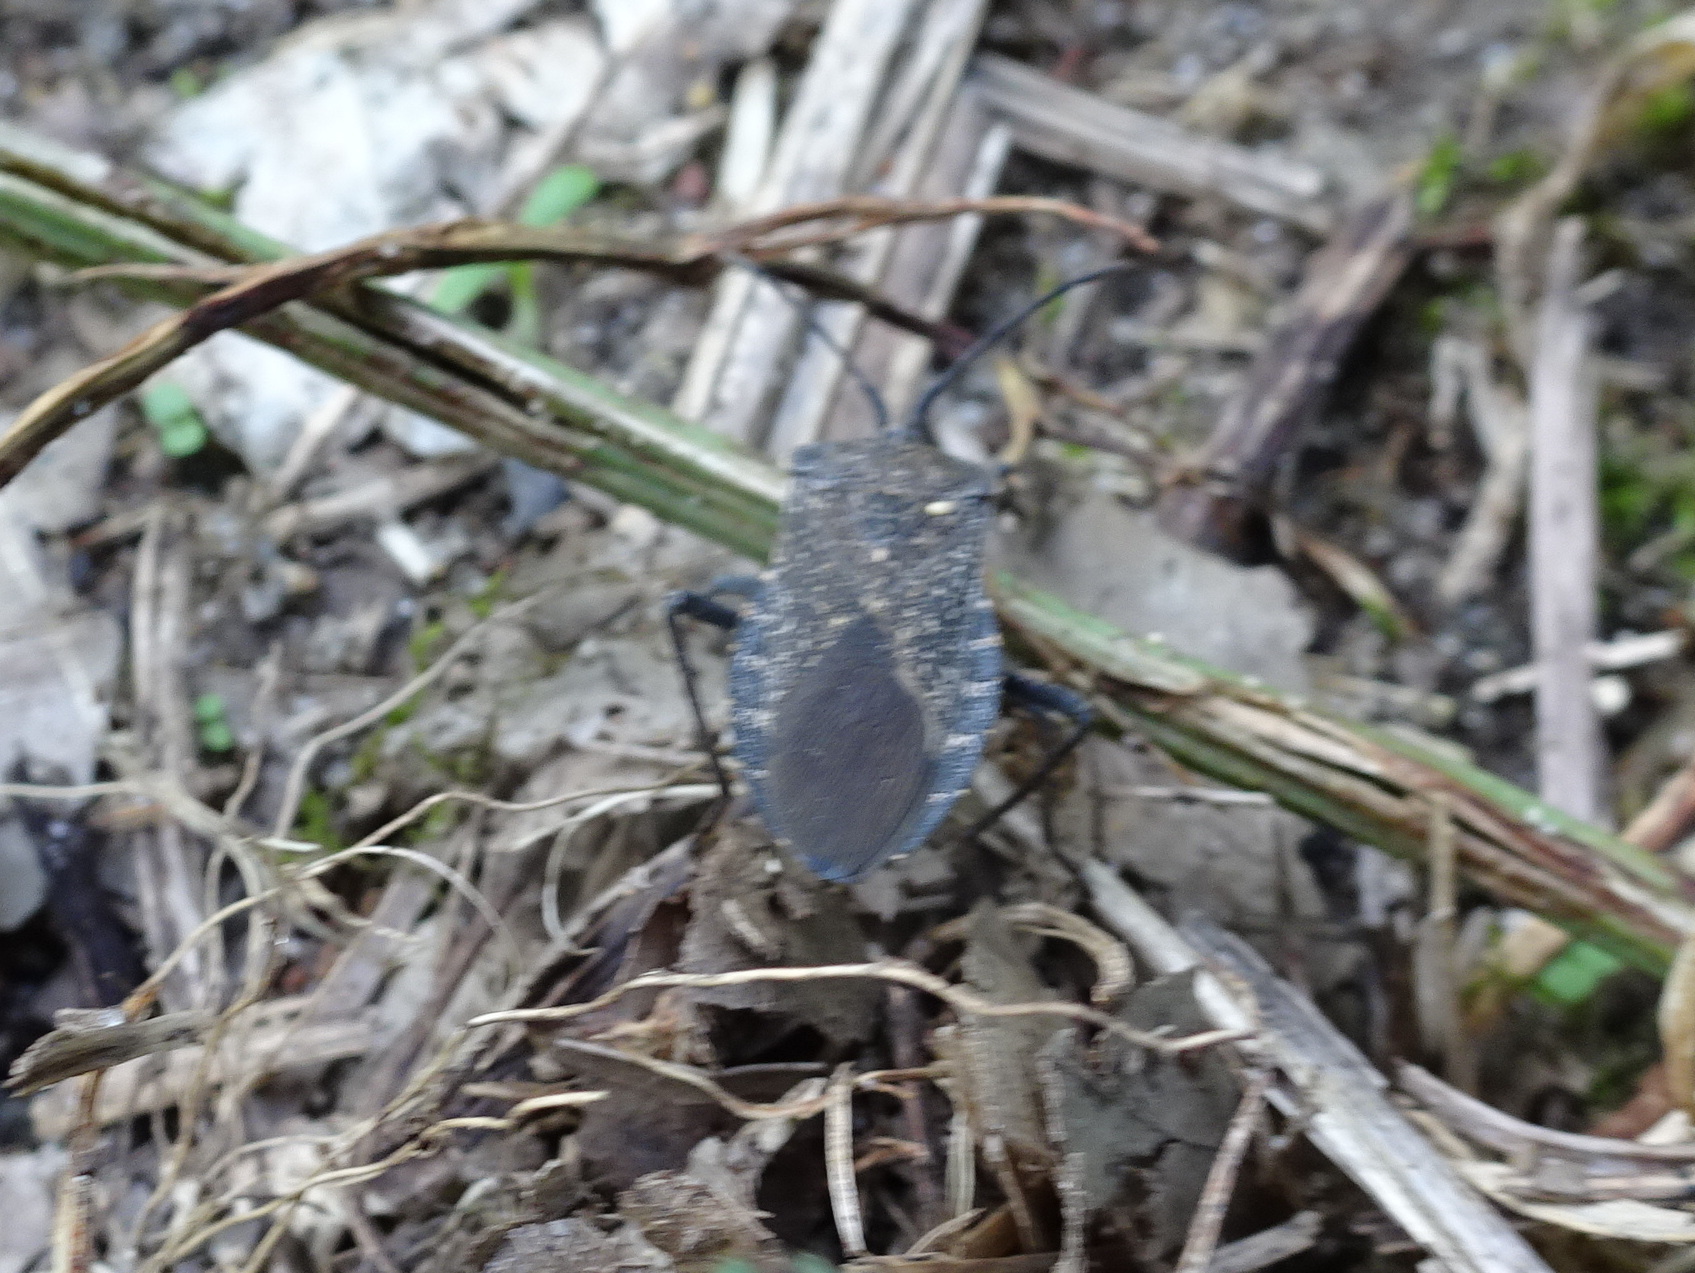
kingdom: Animalia
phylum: Arthropoda
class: Insecta
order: Hemiptera
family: Coreidae
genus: Anasa
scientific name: Anasa tristis
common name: Squash bug
